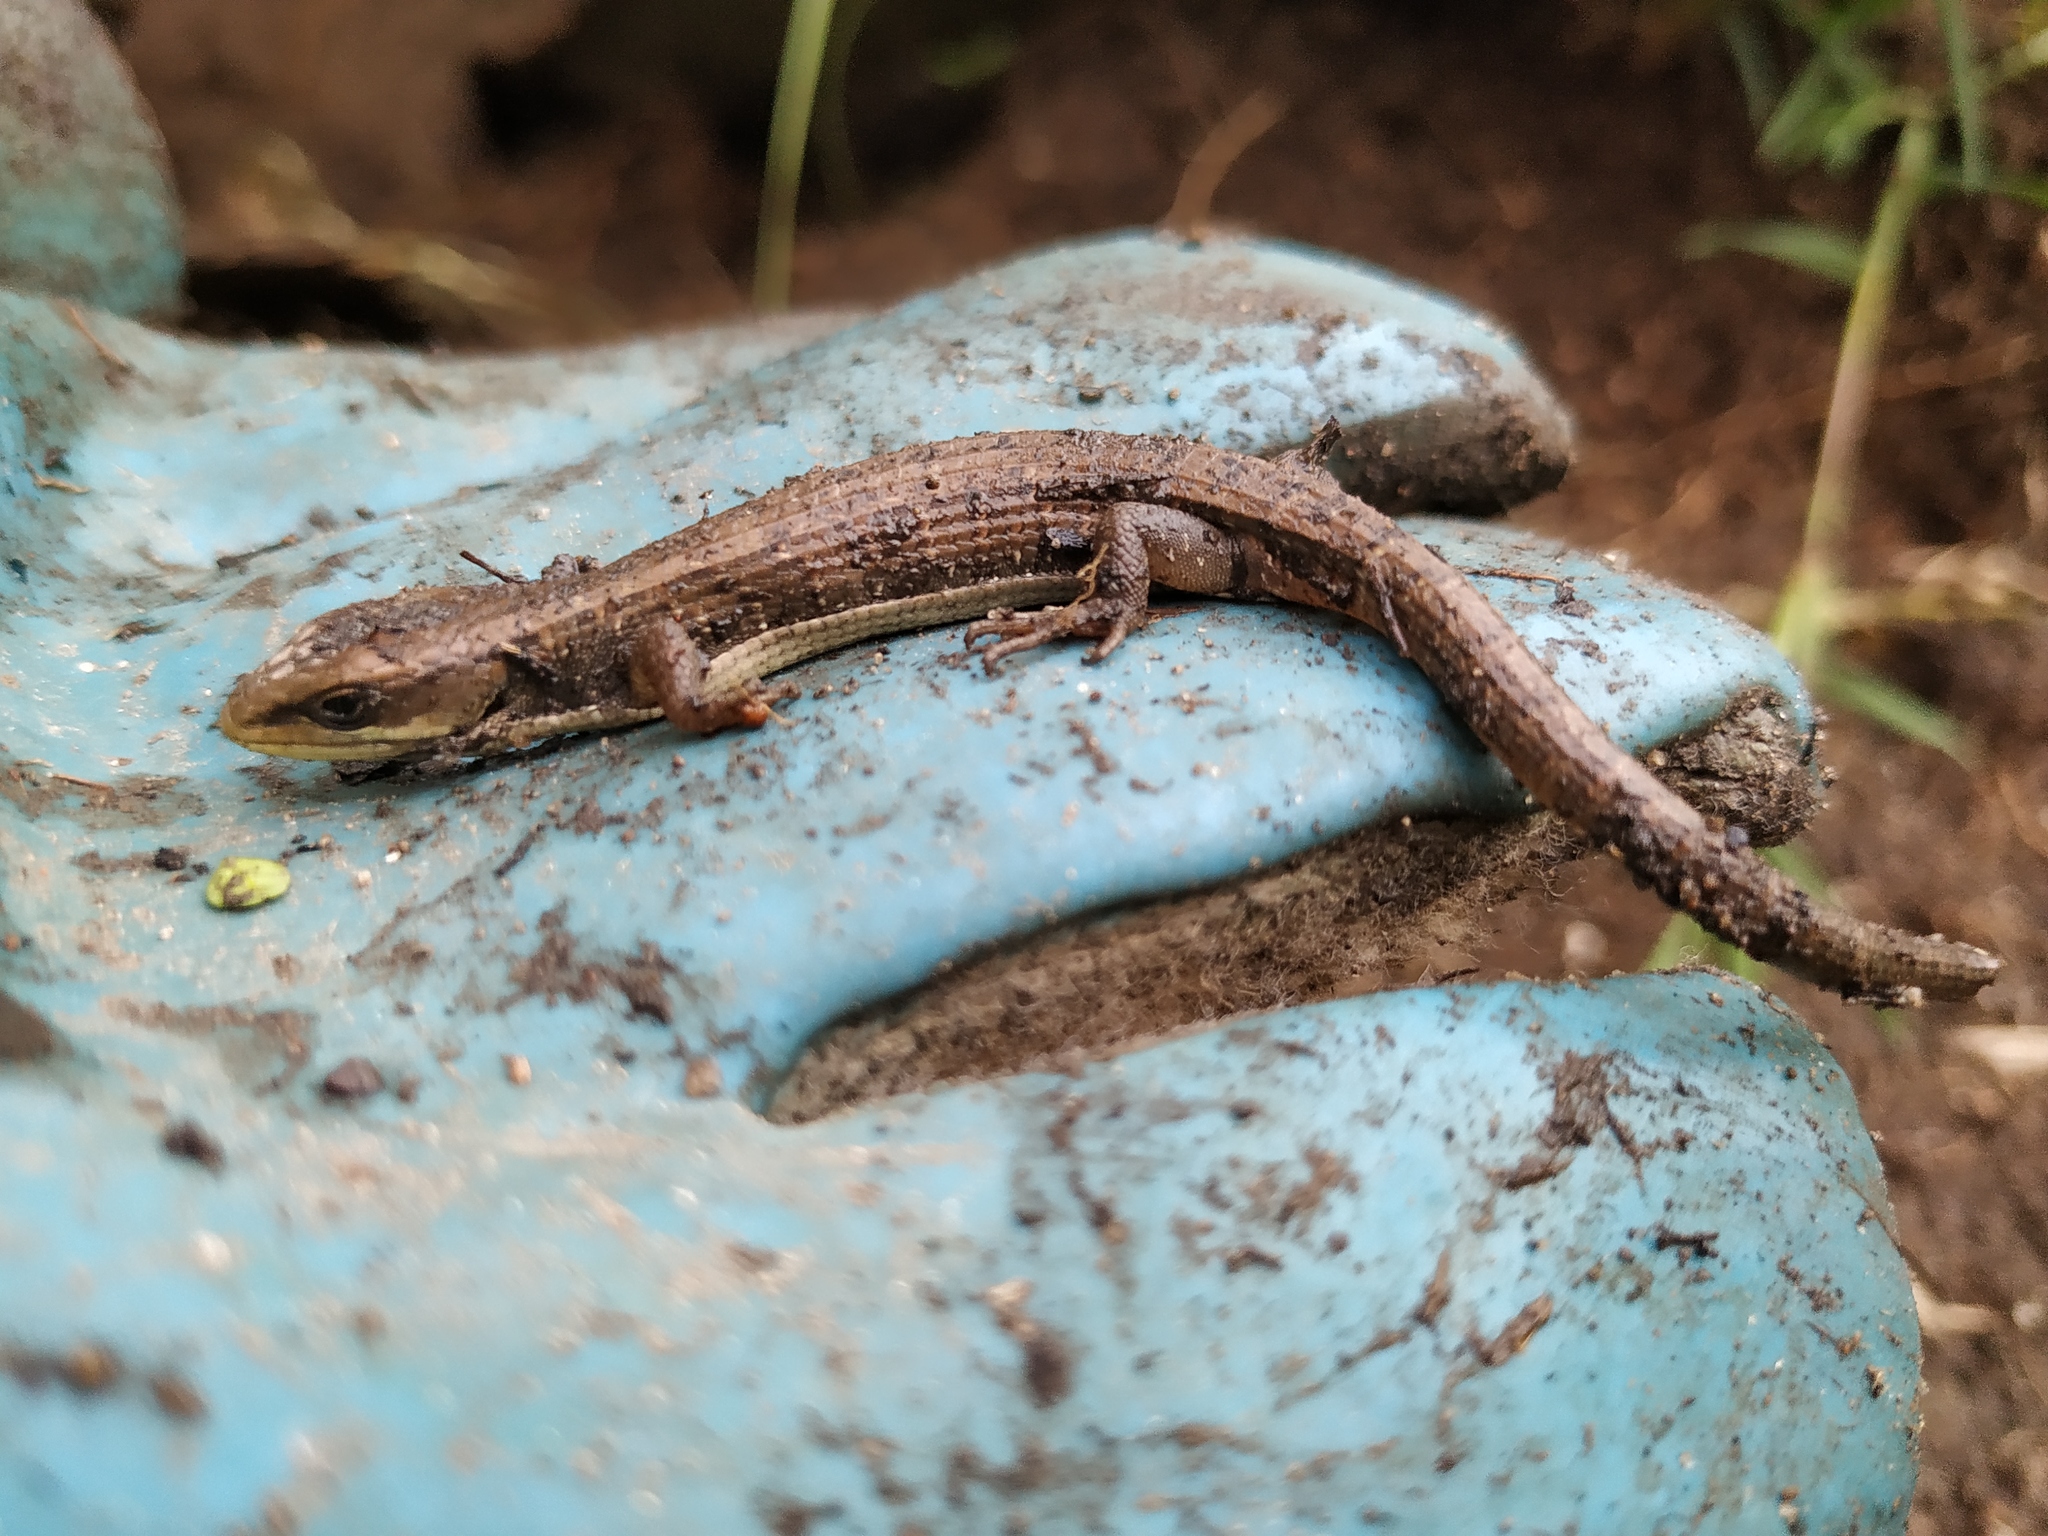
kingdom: Animalia
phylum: Chordata
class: Squamata
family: Anguidae
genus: Barisia
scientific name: Barisia imbricata
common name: Imbricate alligator lizard
